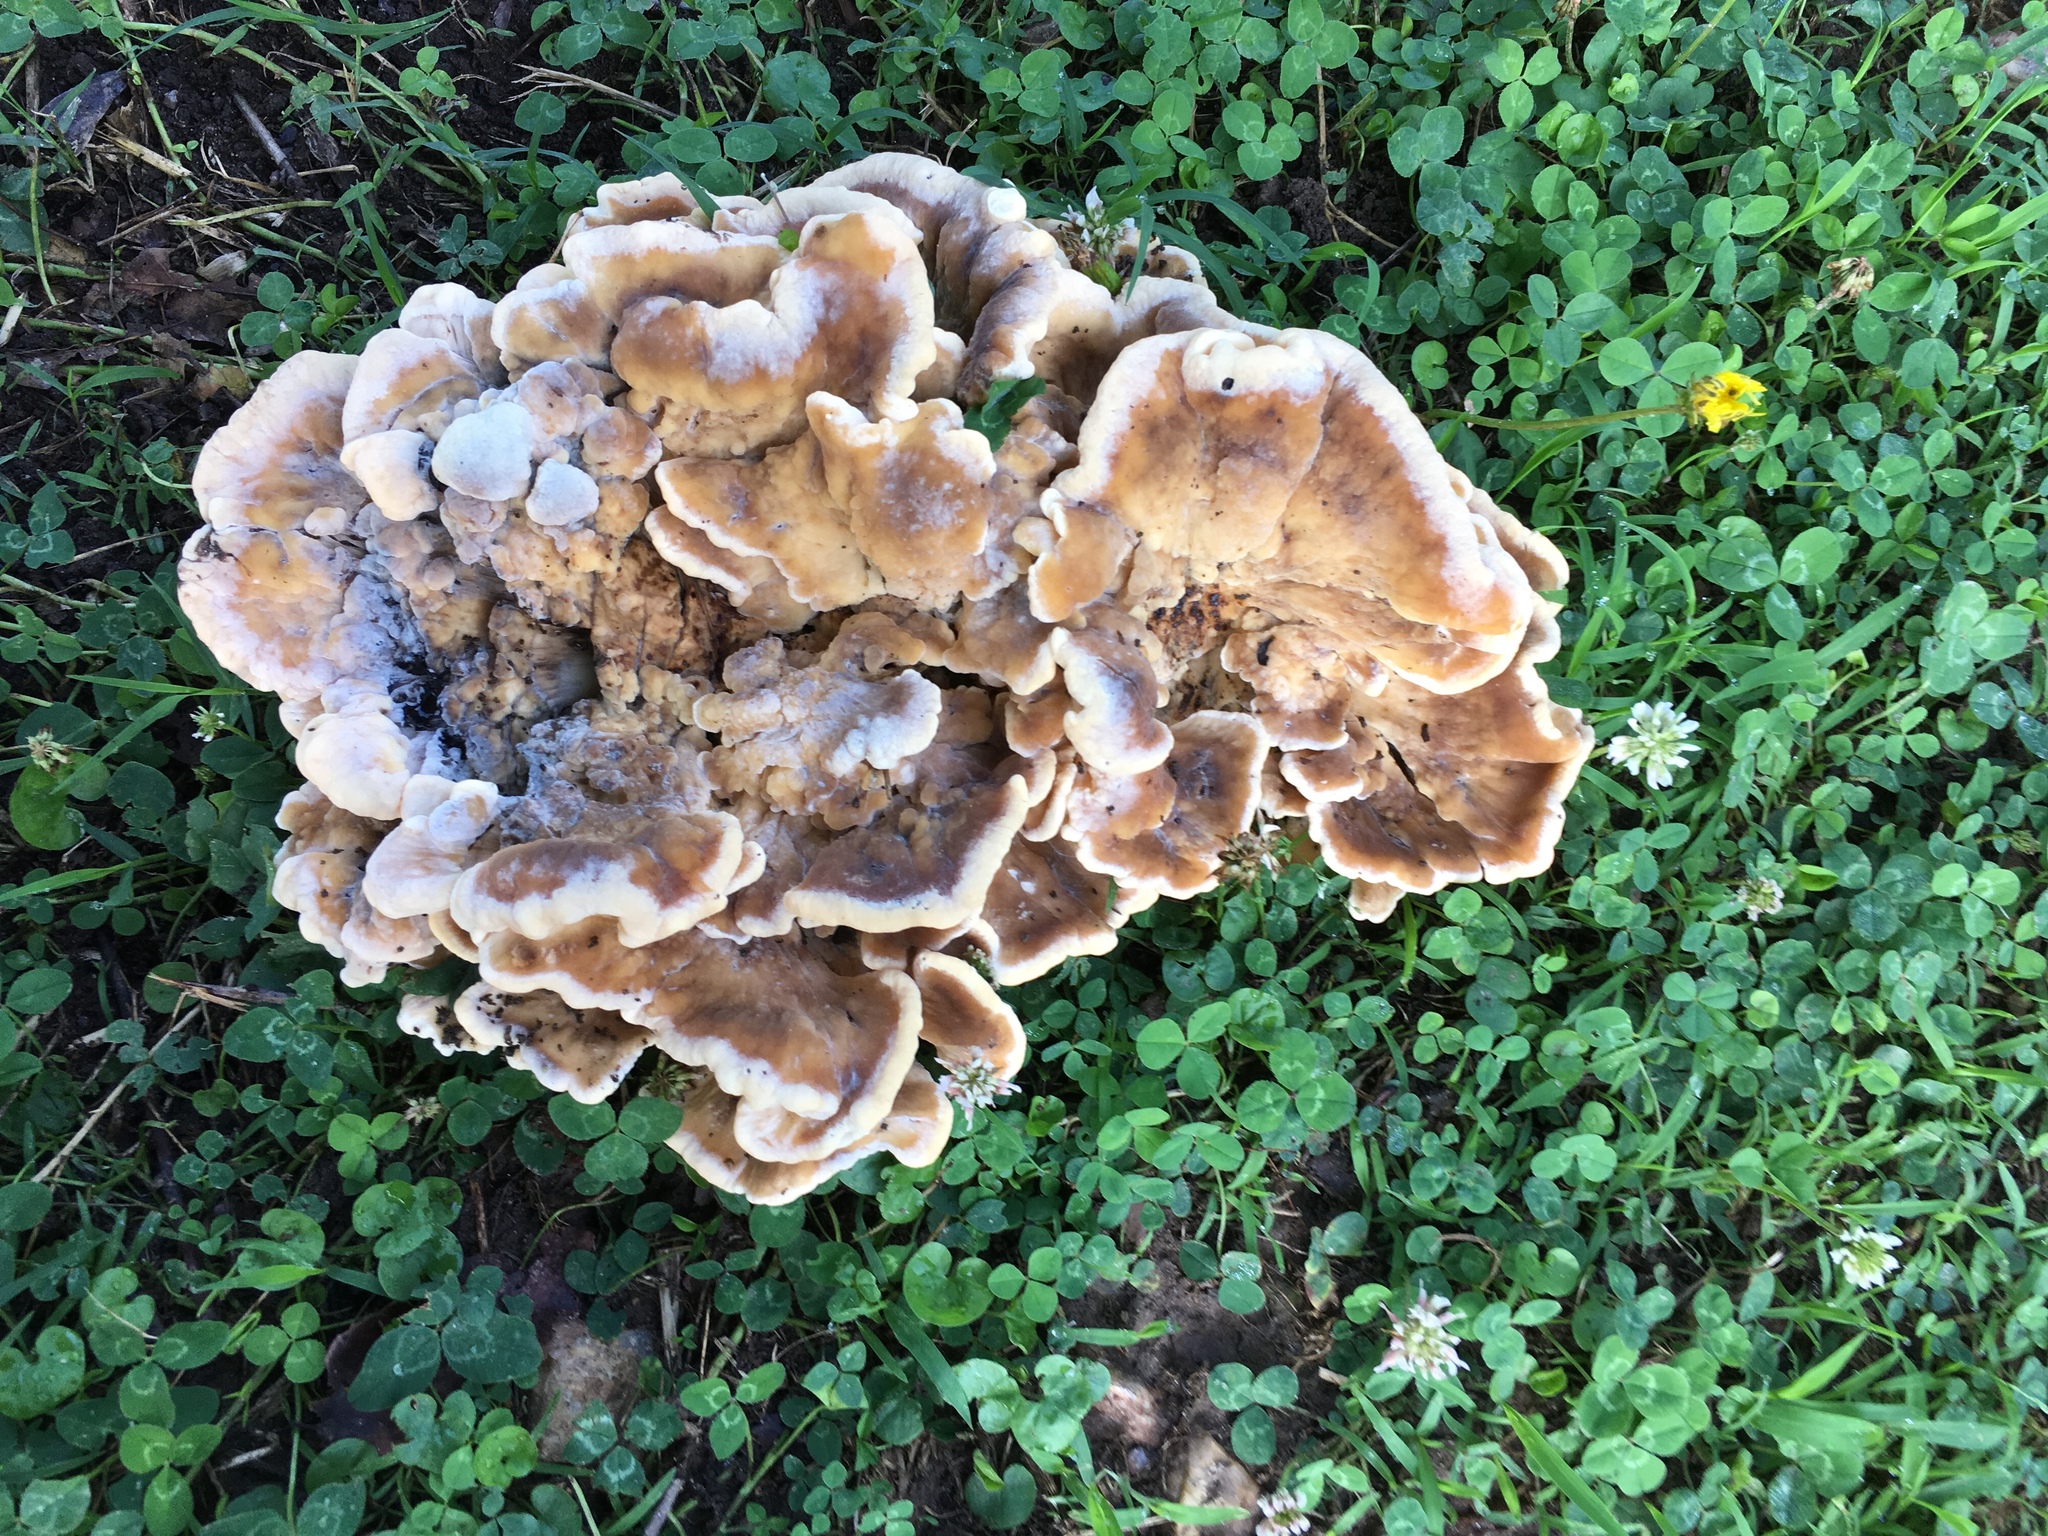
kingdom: Fungi
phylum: Basidiomycota
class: Agaricomycetes
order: Polyporales
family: Meripilaceae
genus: Meripilus
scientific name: Meripilus sumstinei
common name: Black-staining polypore
